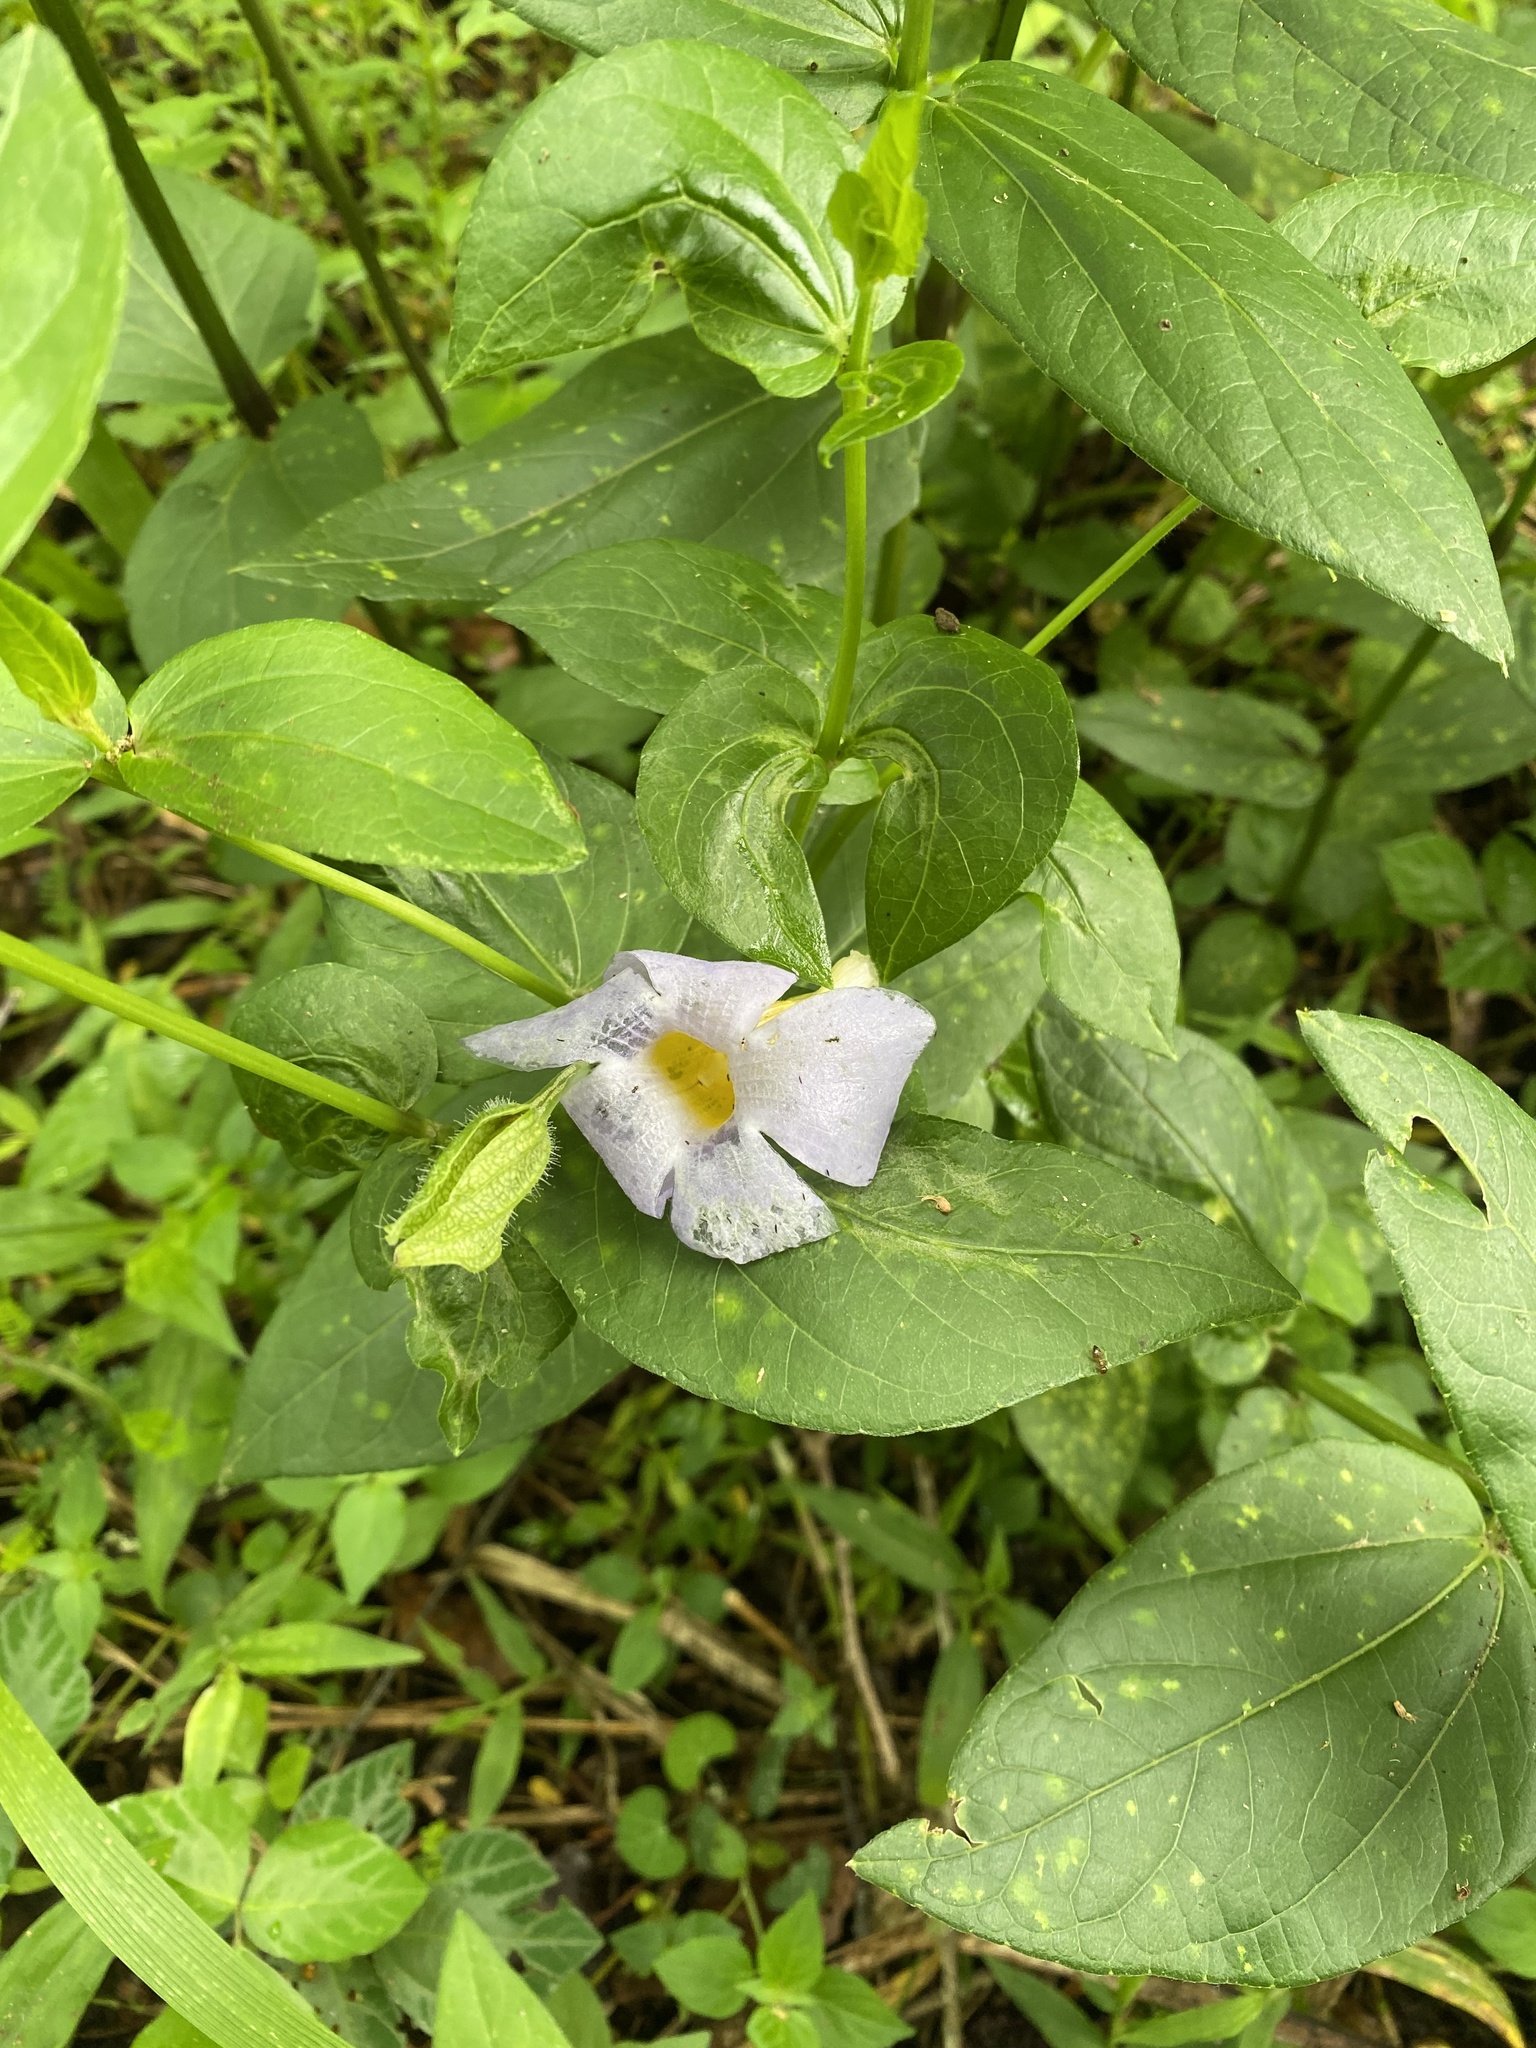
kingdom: Plantae
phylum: Tracheophyta
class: Magnoliopsida
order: Lamiales
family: Acanthaceae
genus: Thunbergia
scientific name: Thunbergia natalensis
